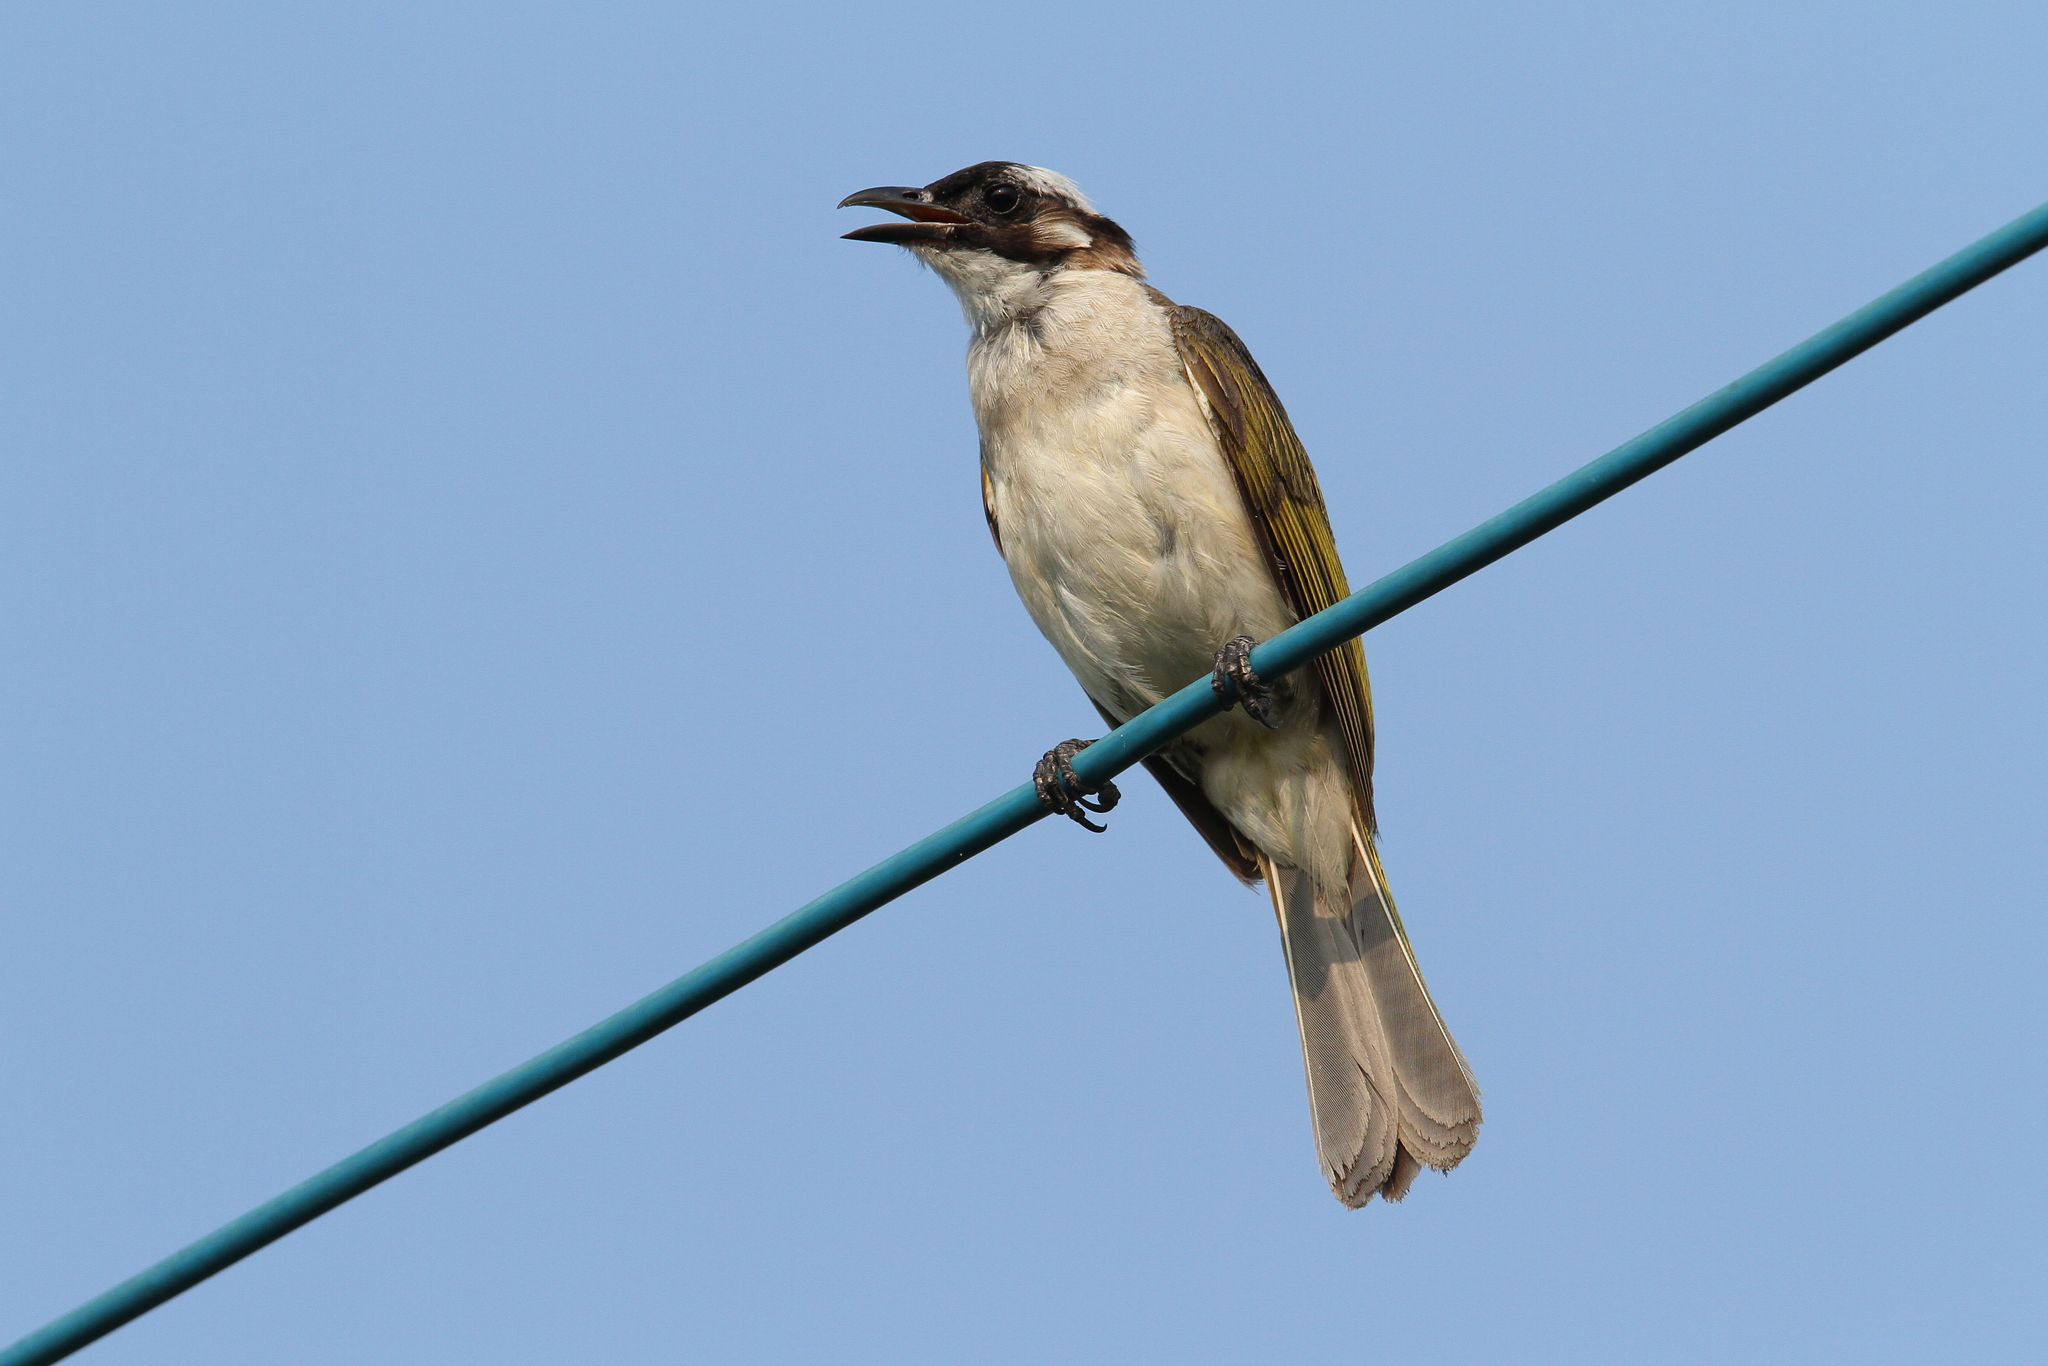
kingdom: Animalia
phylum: Chordata
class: Aves
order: Passeriformes
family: Pycnonotidae
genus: Pycnonotus
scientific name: Pycnonotus sinensis
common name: Light-vented bulbul
